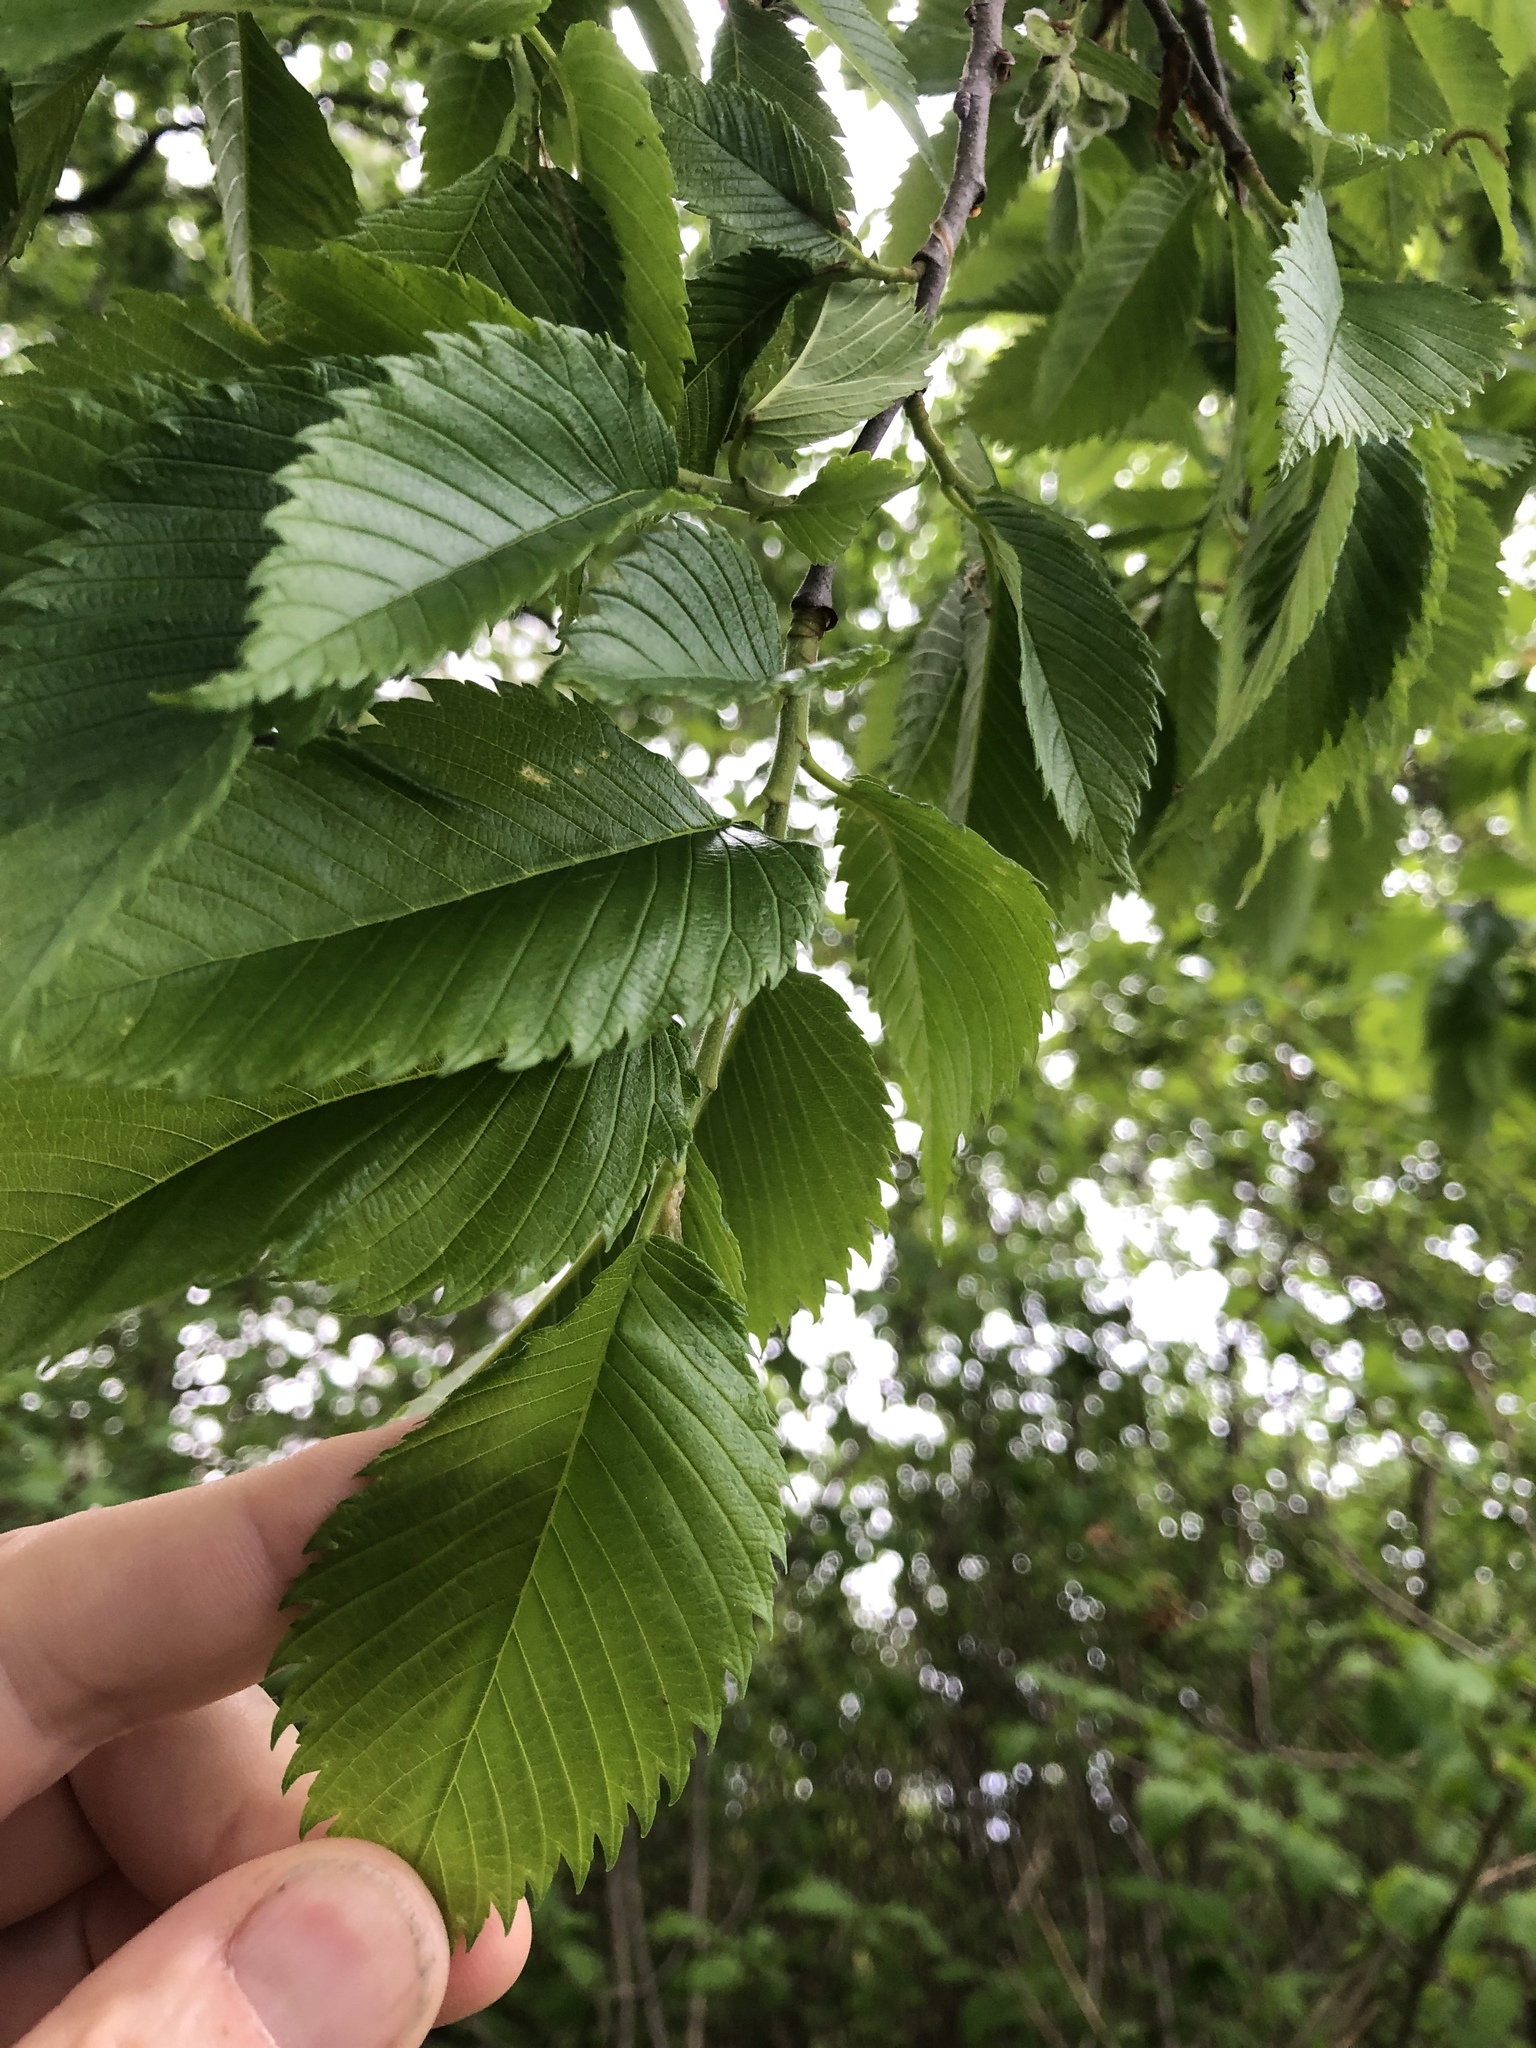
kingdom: Plantae
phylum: Tracheophyta
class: Magnoliopsida
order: Rosales
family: Ulmaceae
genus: Ulmus
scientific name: Ulmus americana
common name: American elm
